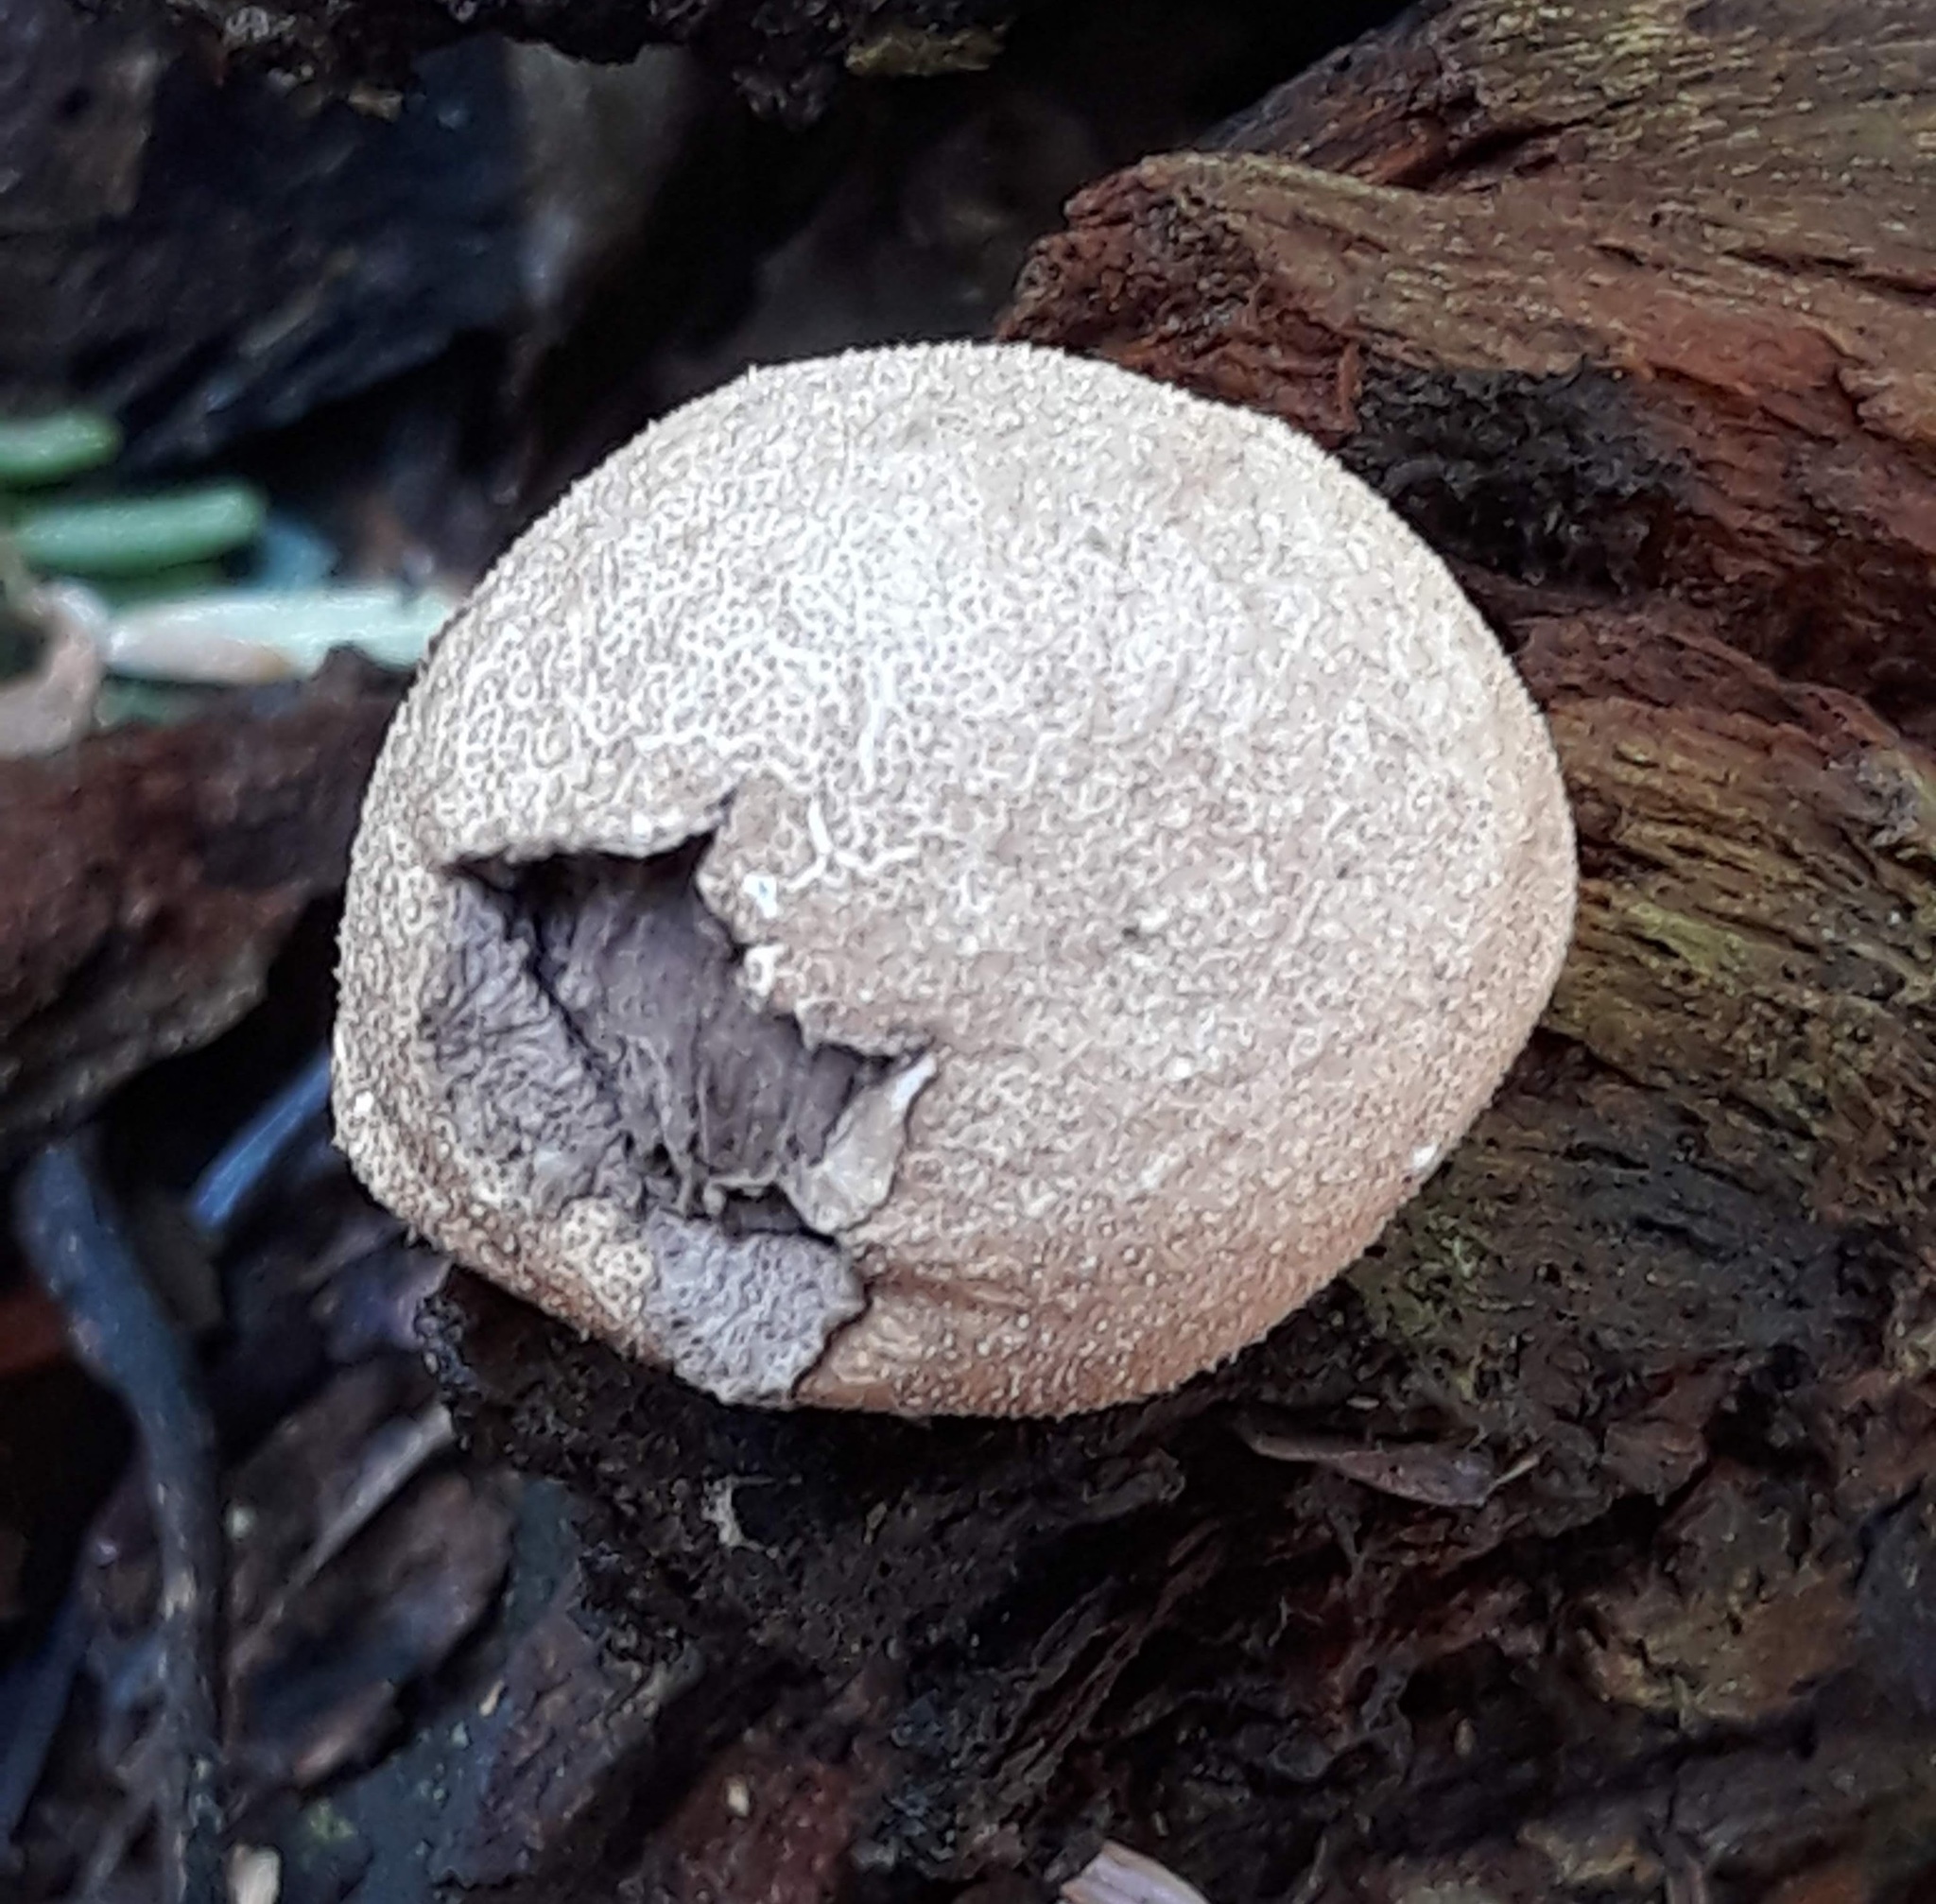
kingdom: Fungi
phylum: Basidiomycota
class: Agaricomycetes
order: Agaricales
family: Lycoperdaceae
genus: Apioperdon
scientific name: Apioperdon pyriforme
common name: Pear-shaped puffball
